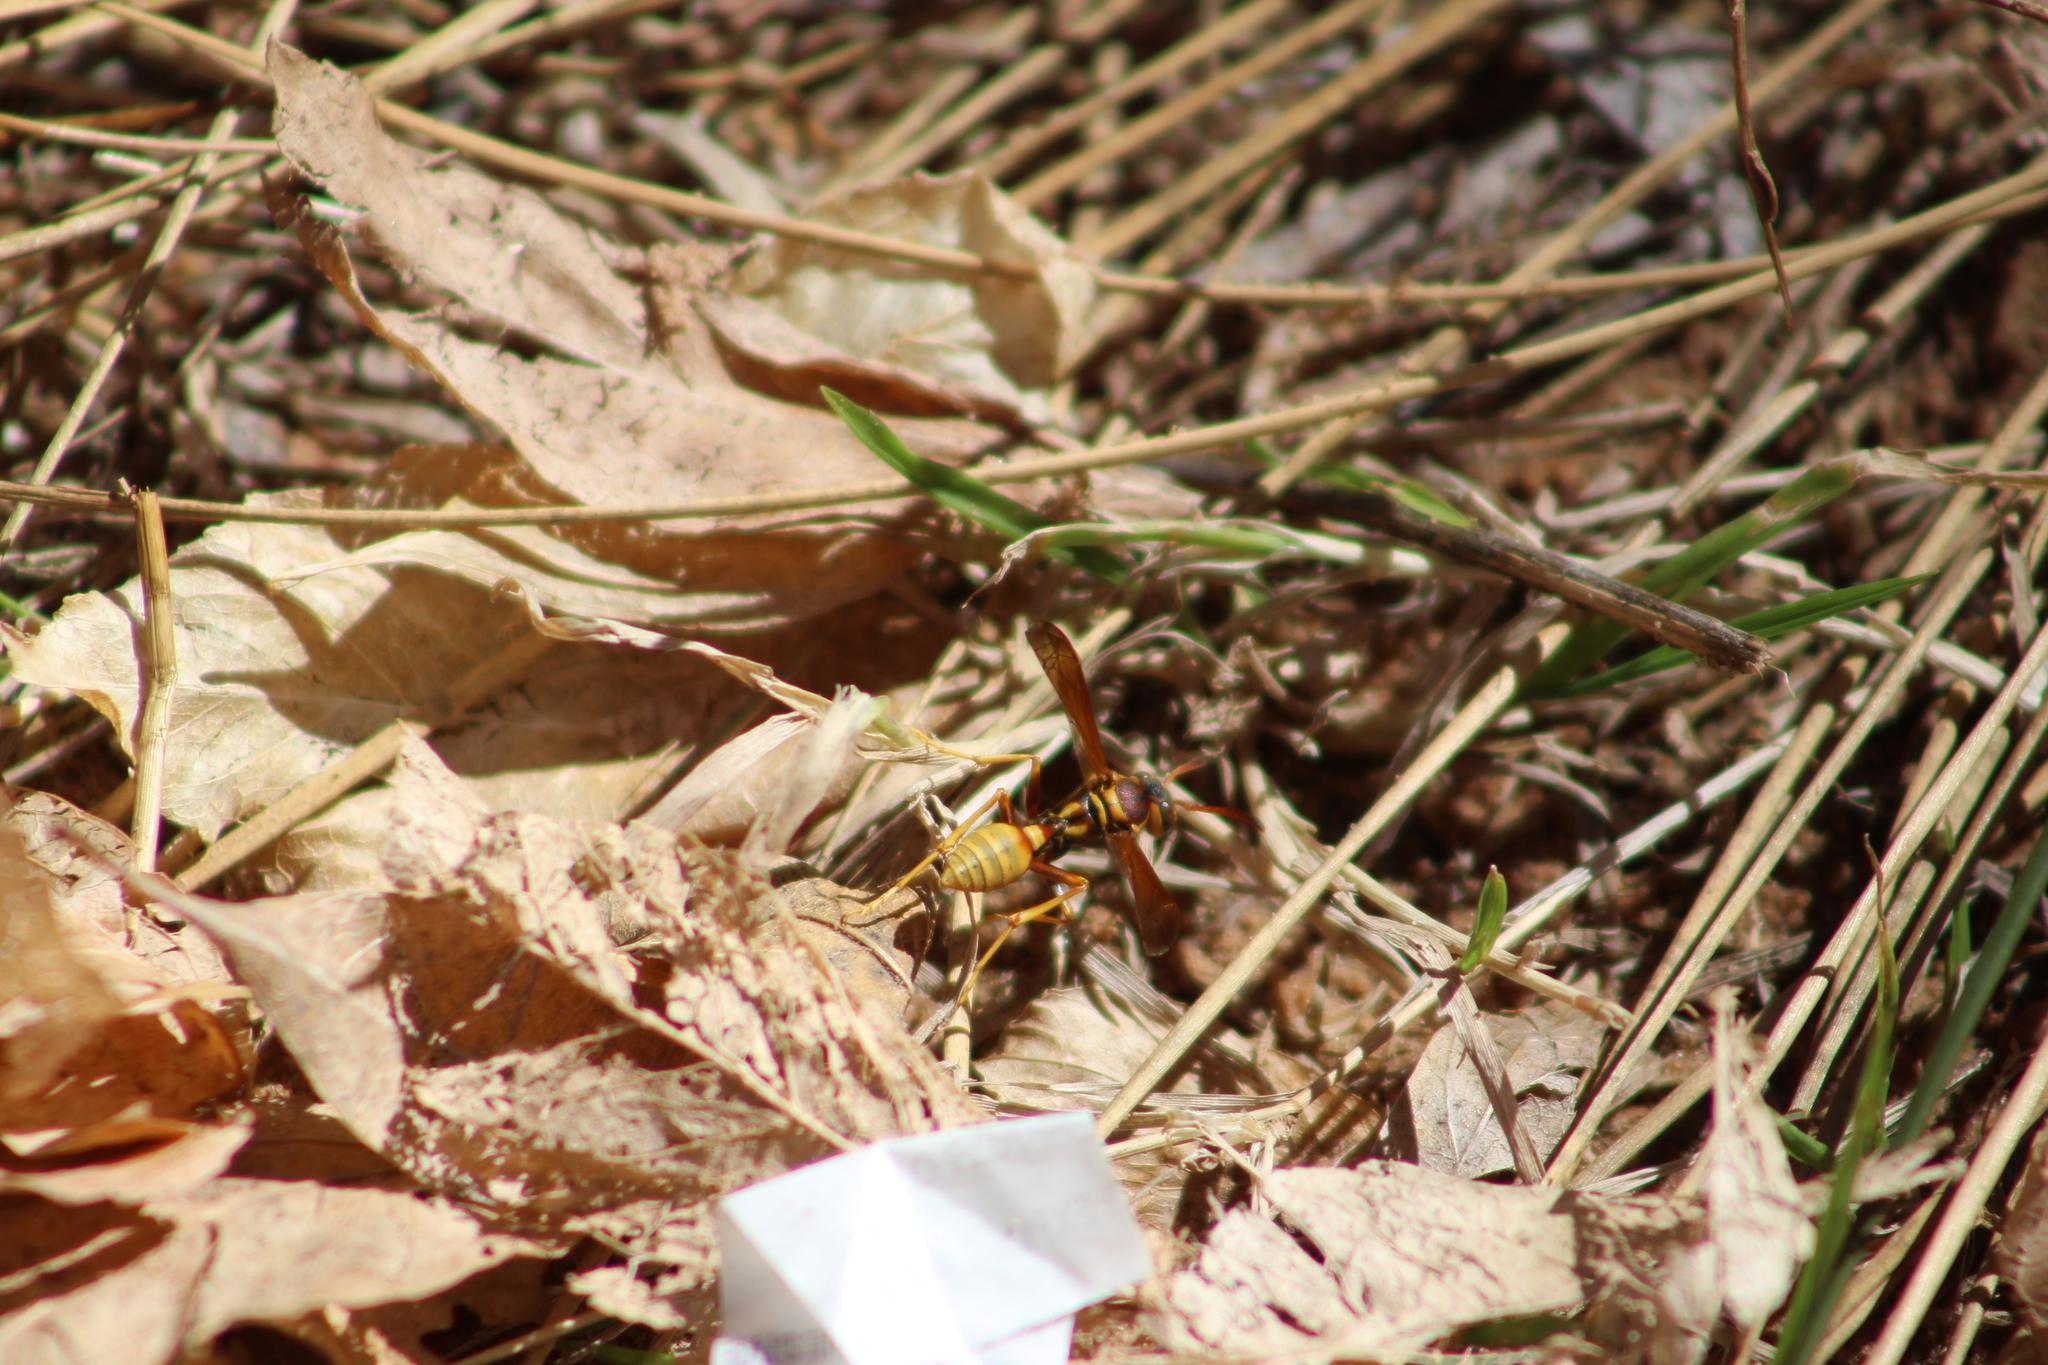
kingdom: Animalia
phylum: Arthropoda
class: Insecta
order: Hymenoptera
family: Vespidae
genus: Mischocyttarus
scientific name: Mischocyttarus flavitarsis
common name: Wasp
